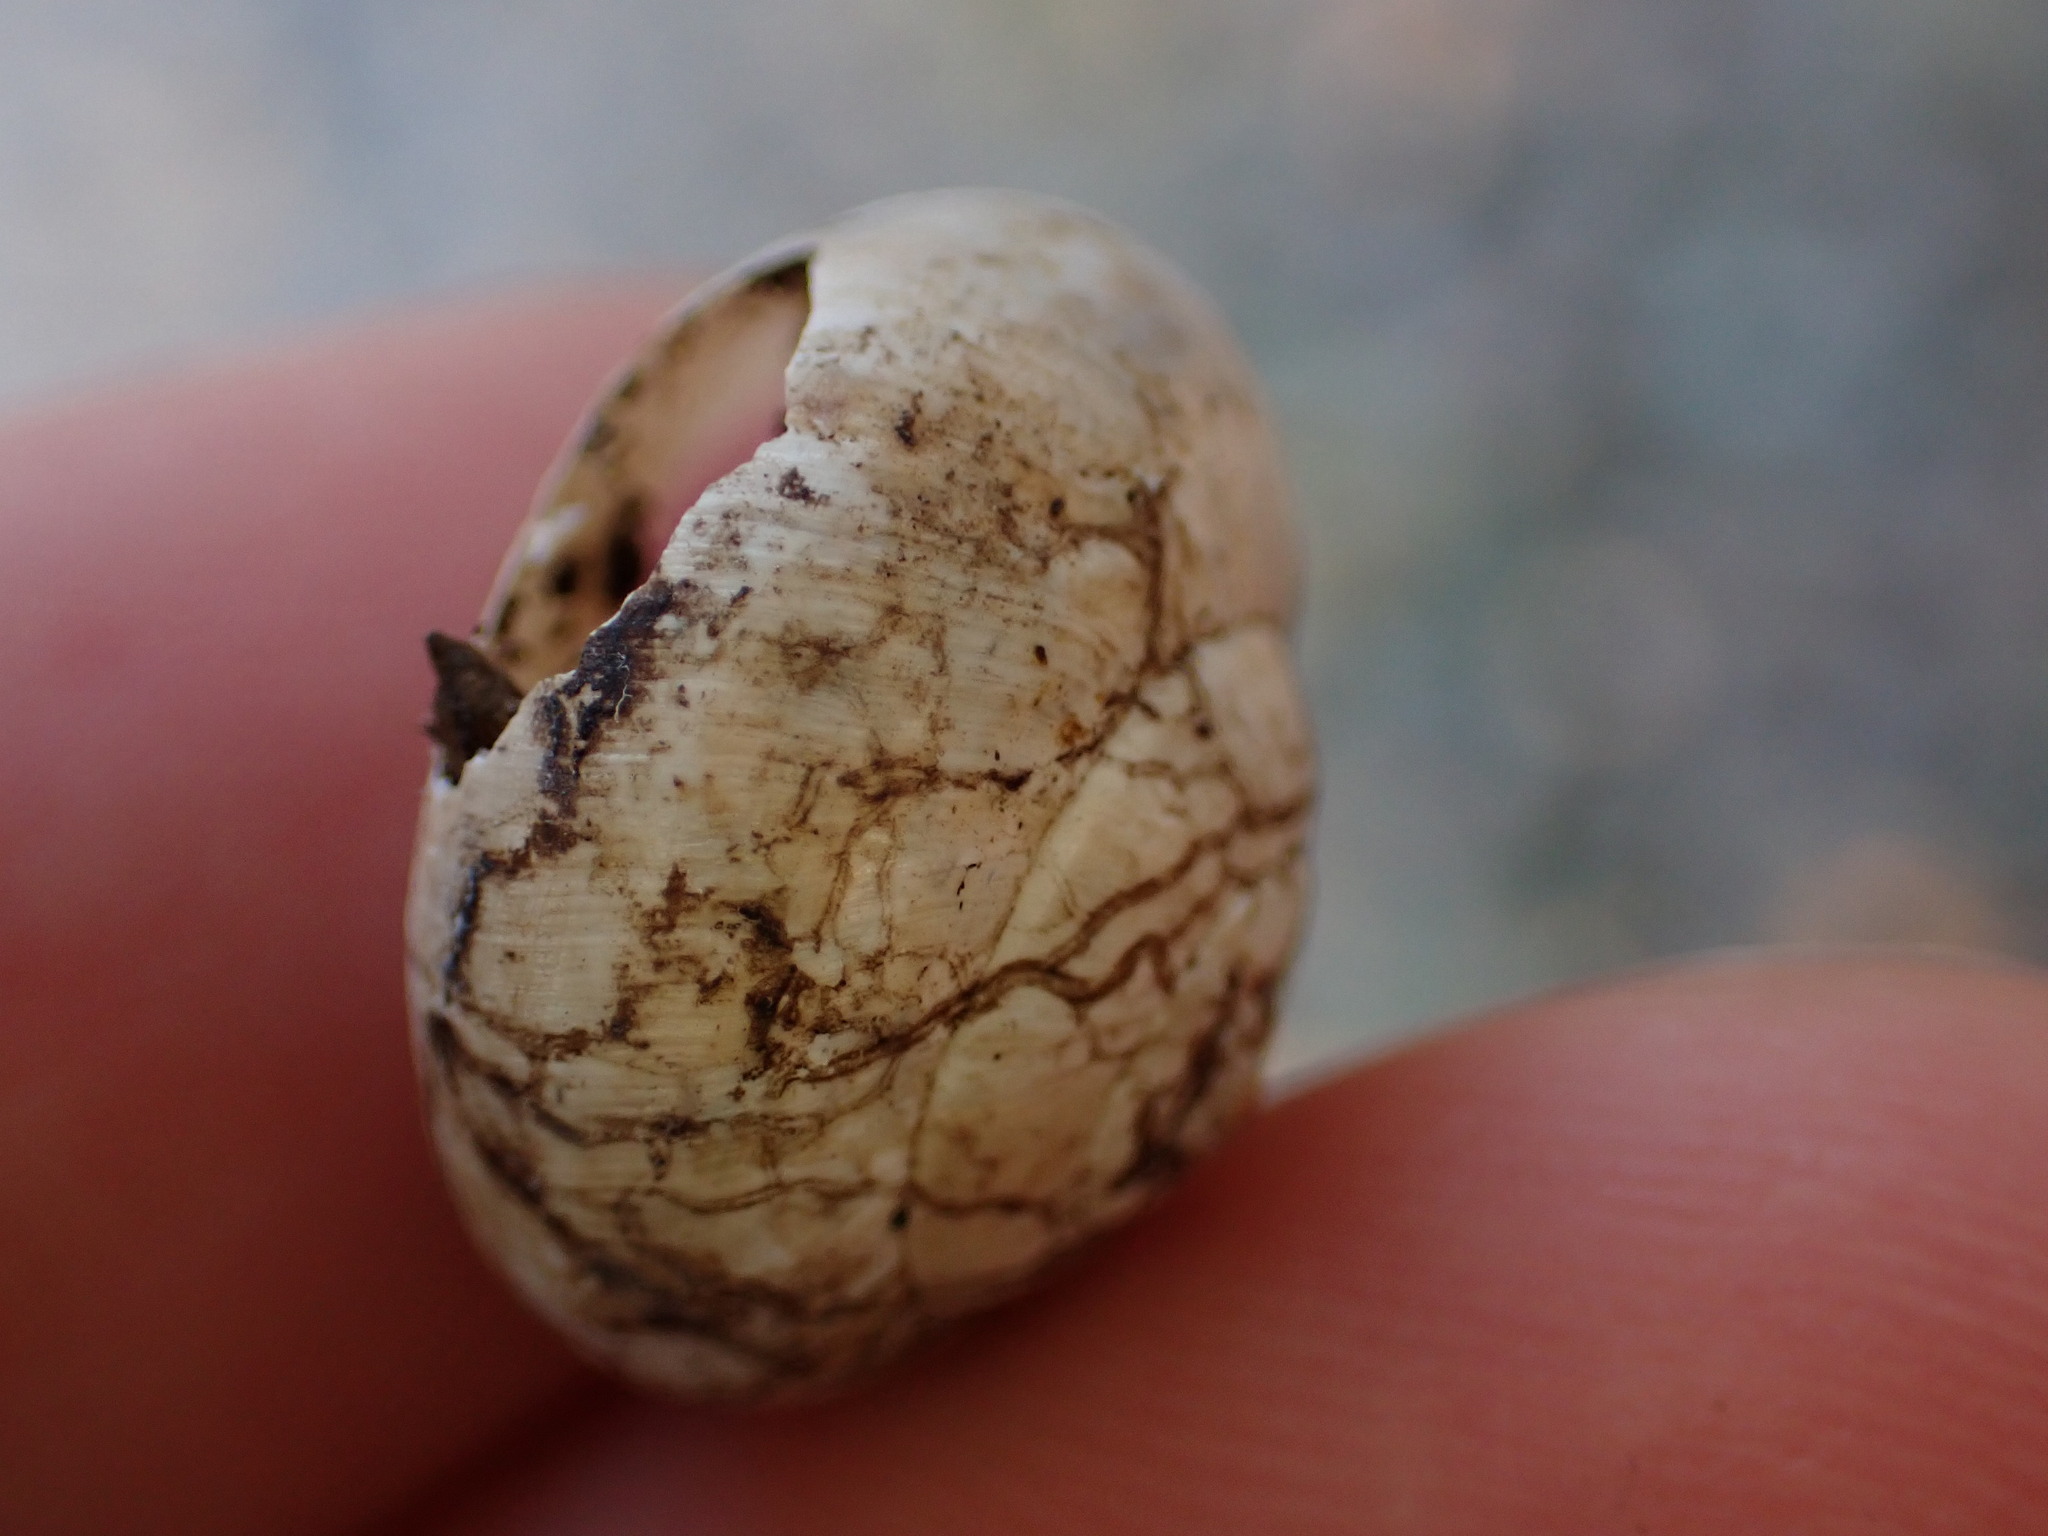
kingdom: Animalia
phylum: Mollusca
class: Gastropoda
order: Stylommatophora
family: Helicidae
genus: Theba
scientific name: Theba pisana
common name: White snail
